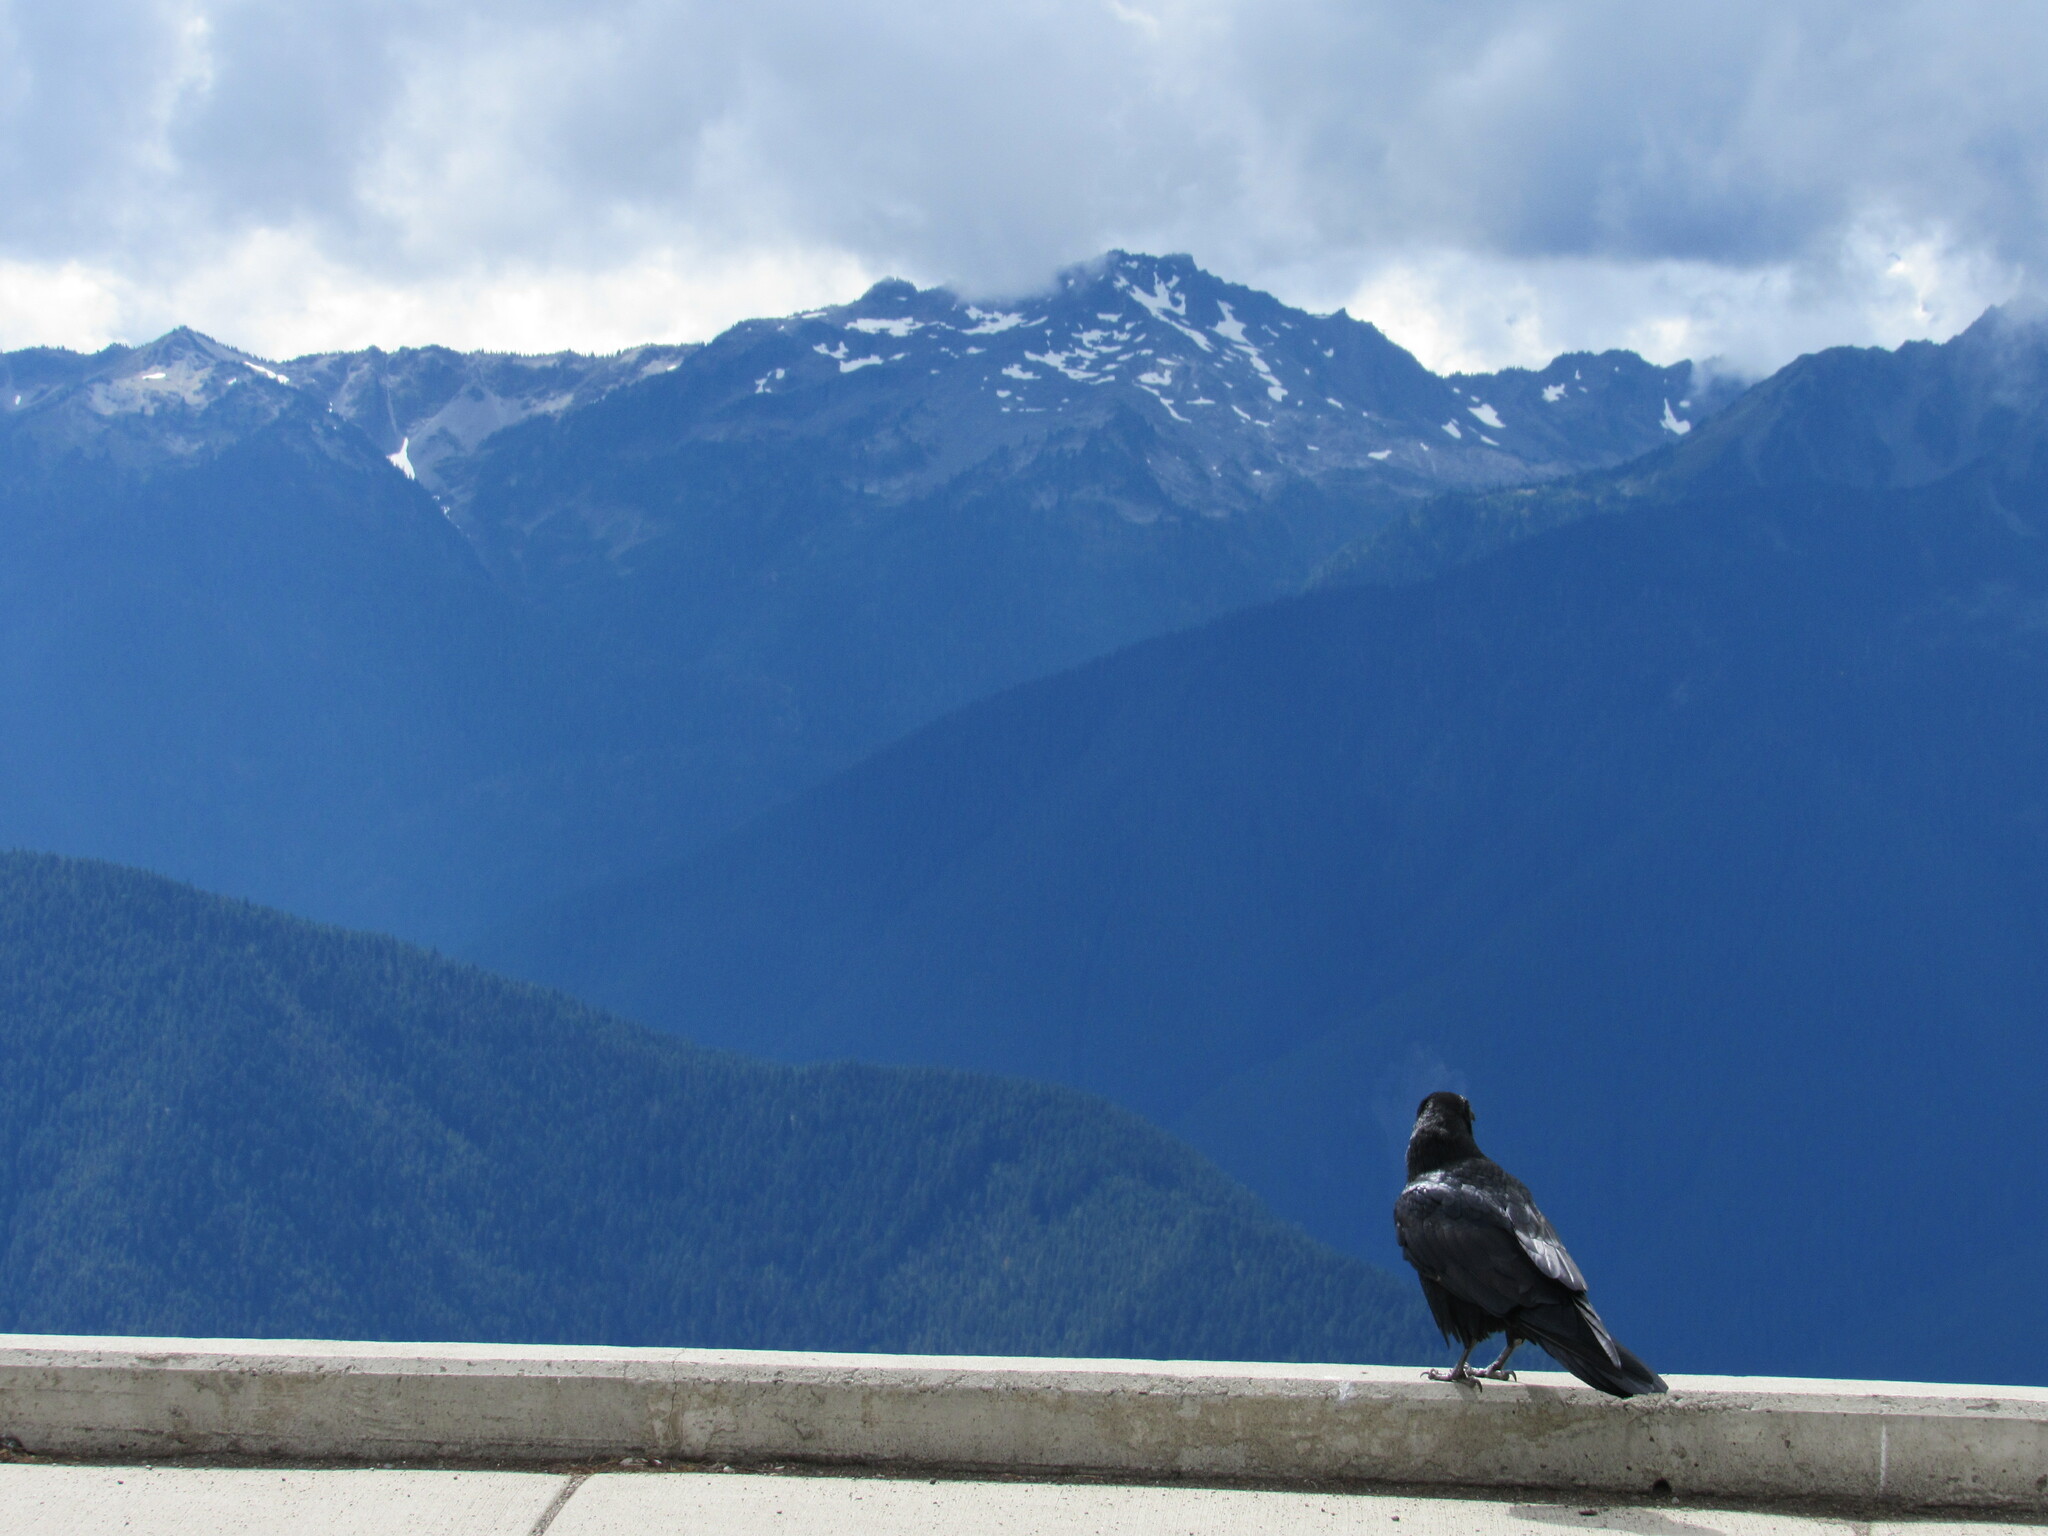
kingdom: Animalia
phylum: Chordata
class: Aves
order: Passeriformes
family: Corvidae
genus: Corvus
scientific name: Corvus corax
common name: Common raven
